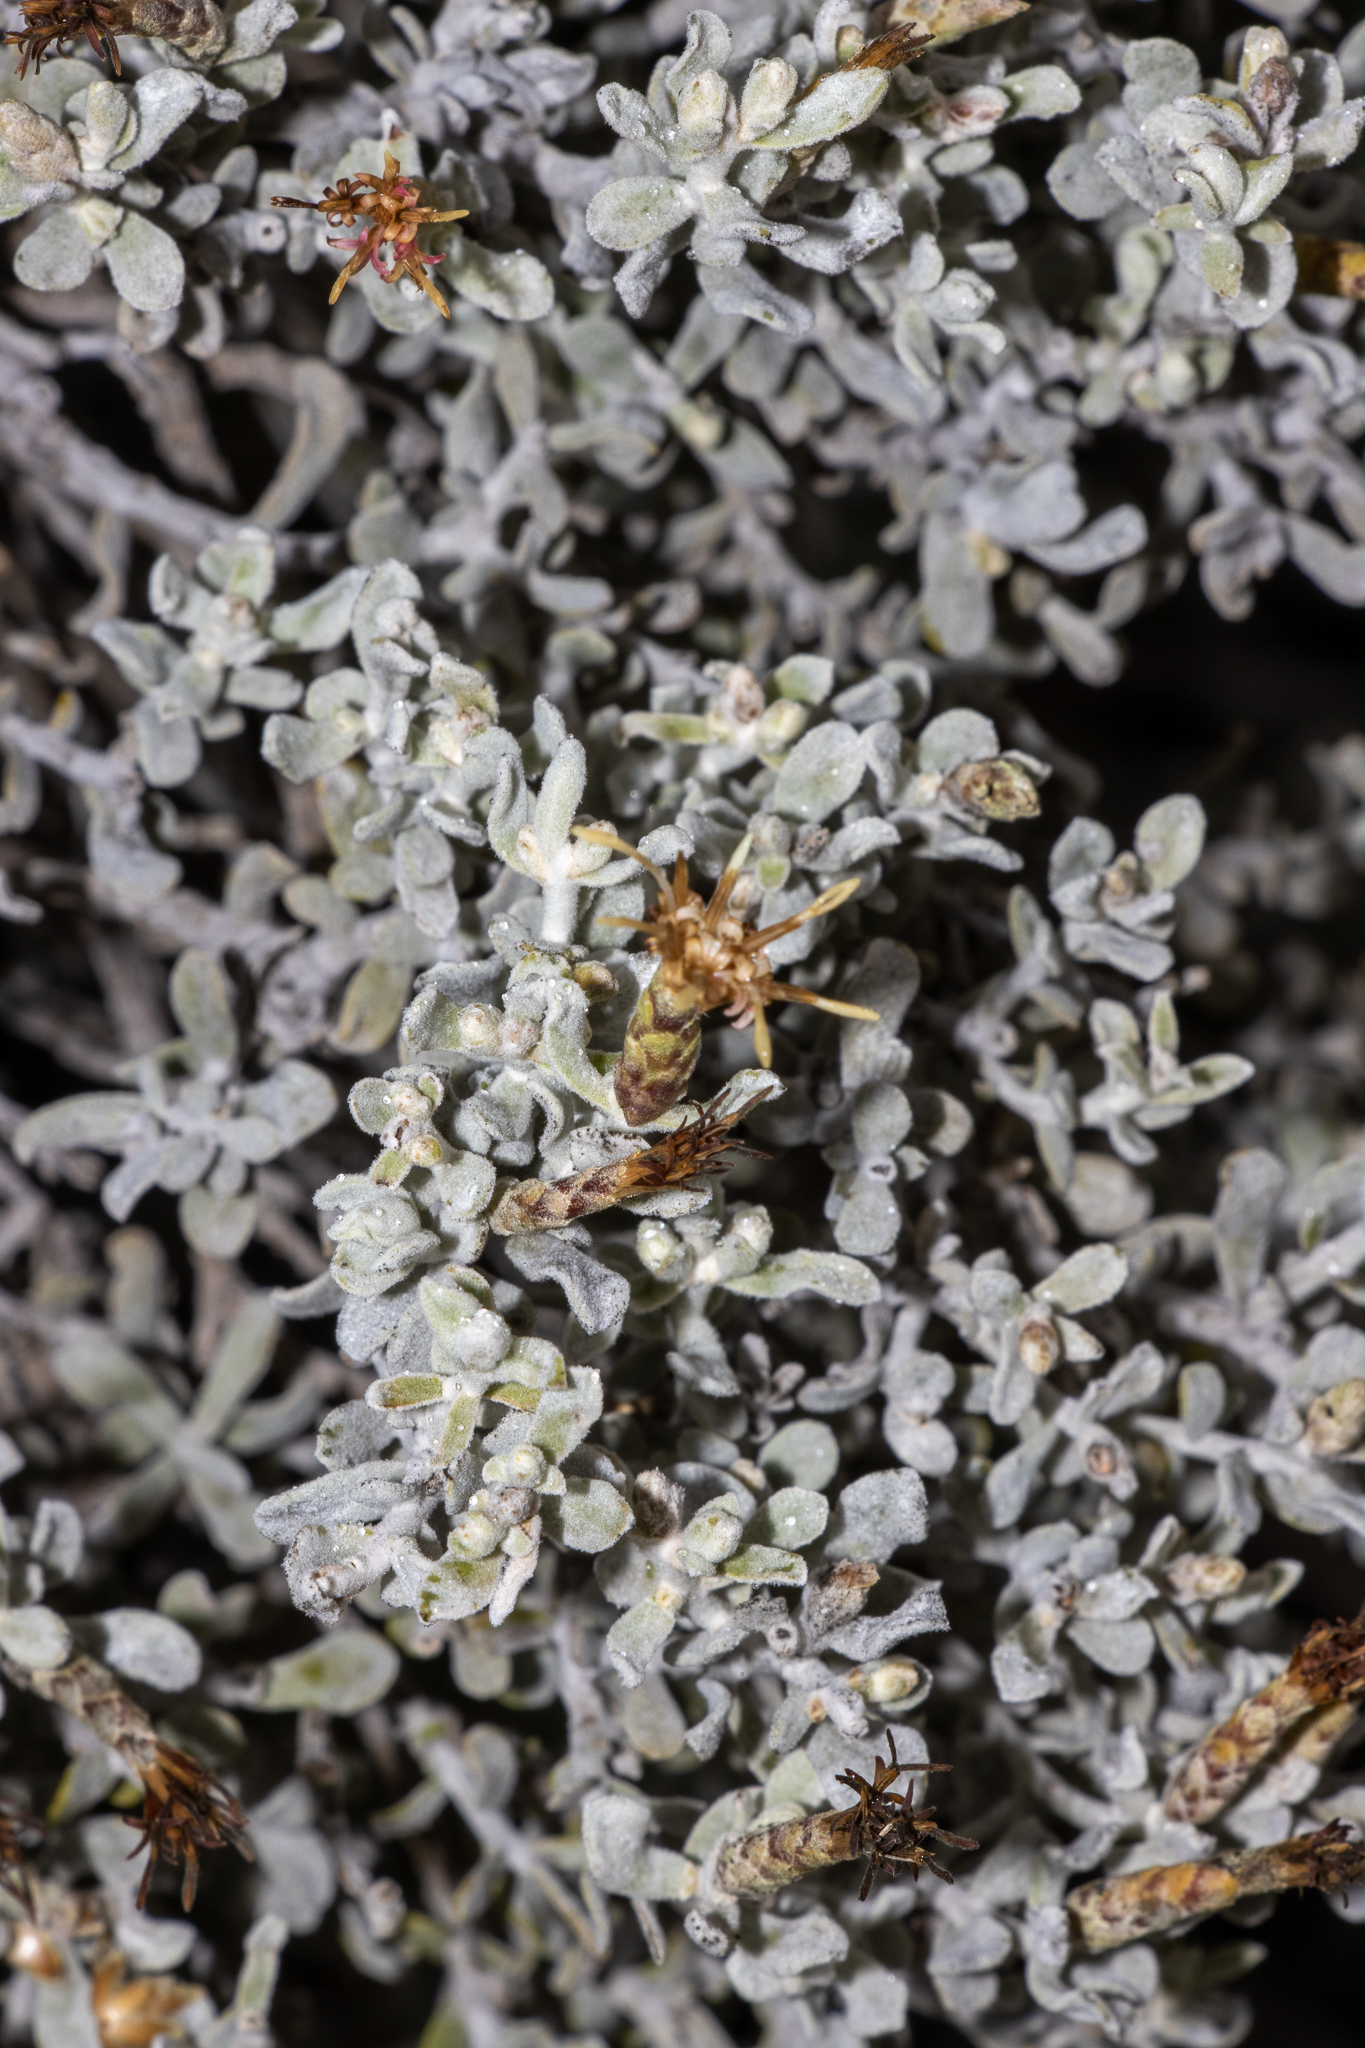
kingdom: Plantae
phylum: Tracheophyta
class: Magnoliopsida
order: Asterales
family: Asteraceae
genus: Cratystylis
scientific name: Cratystylis conocephala
